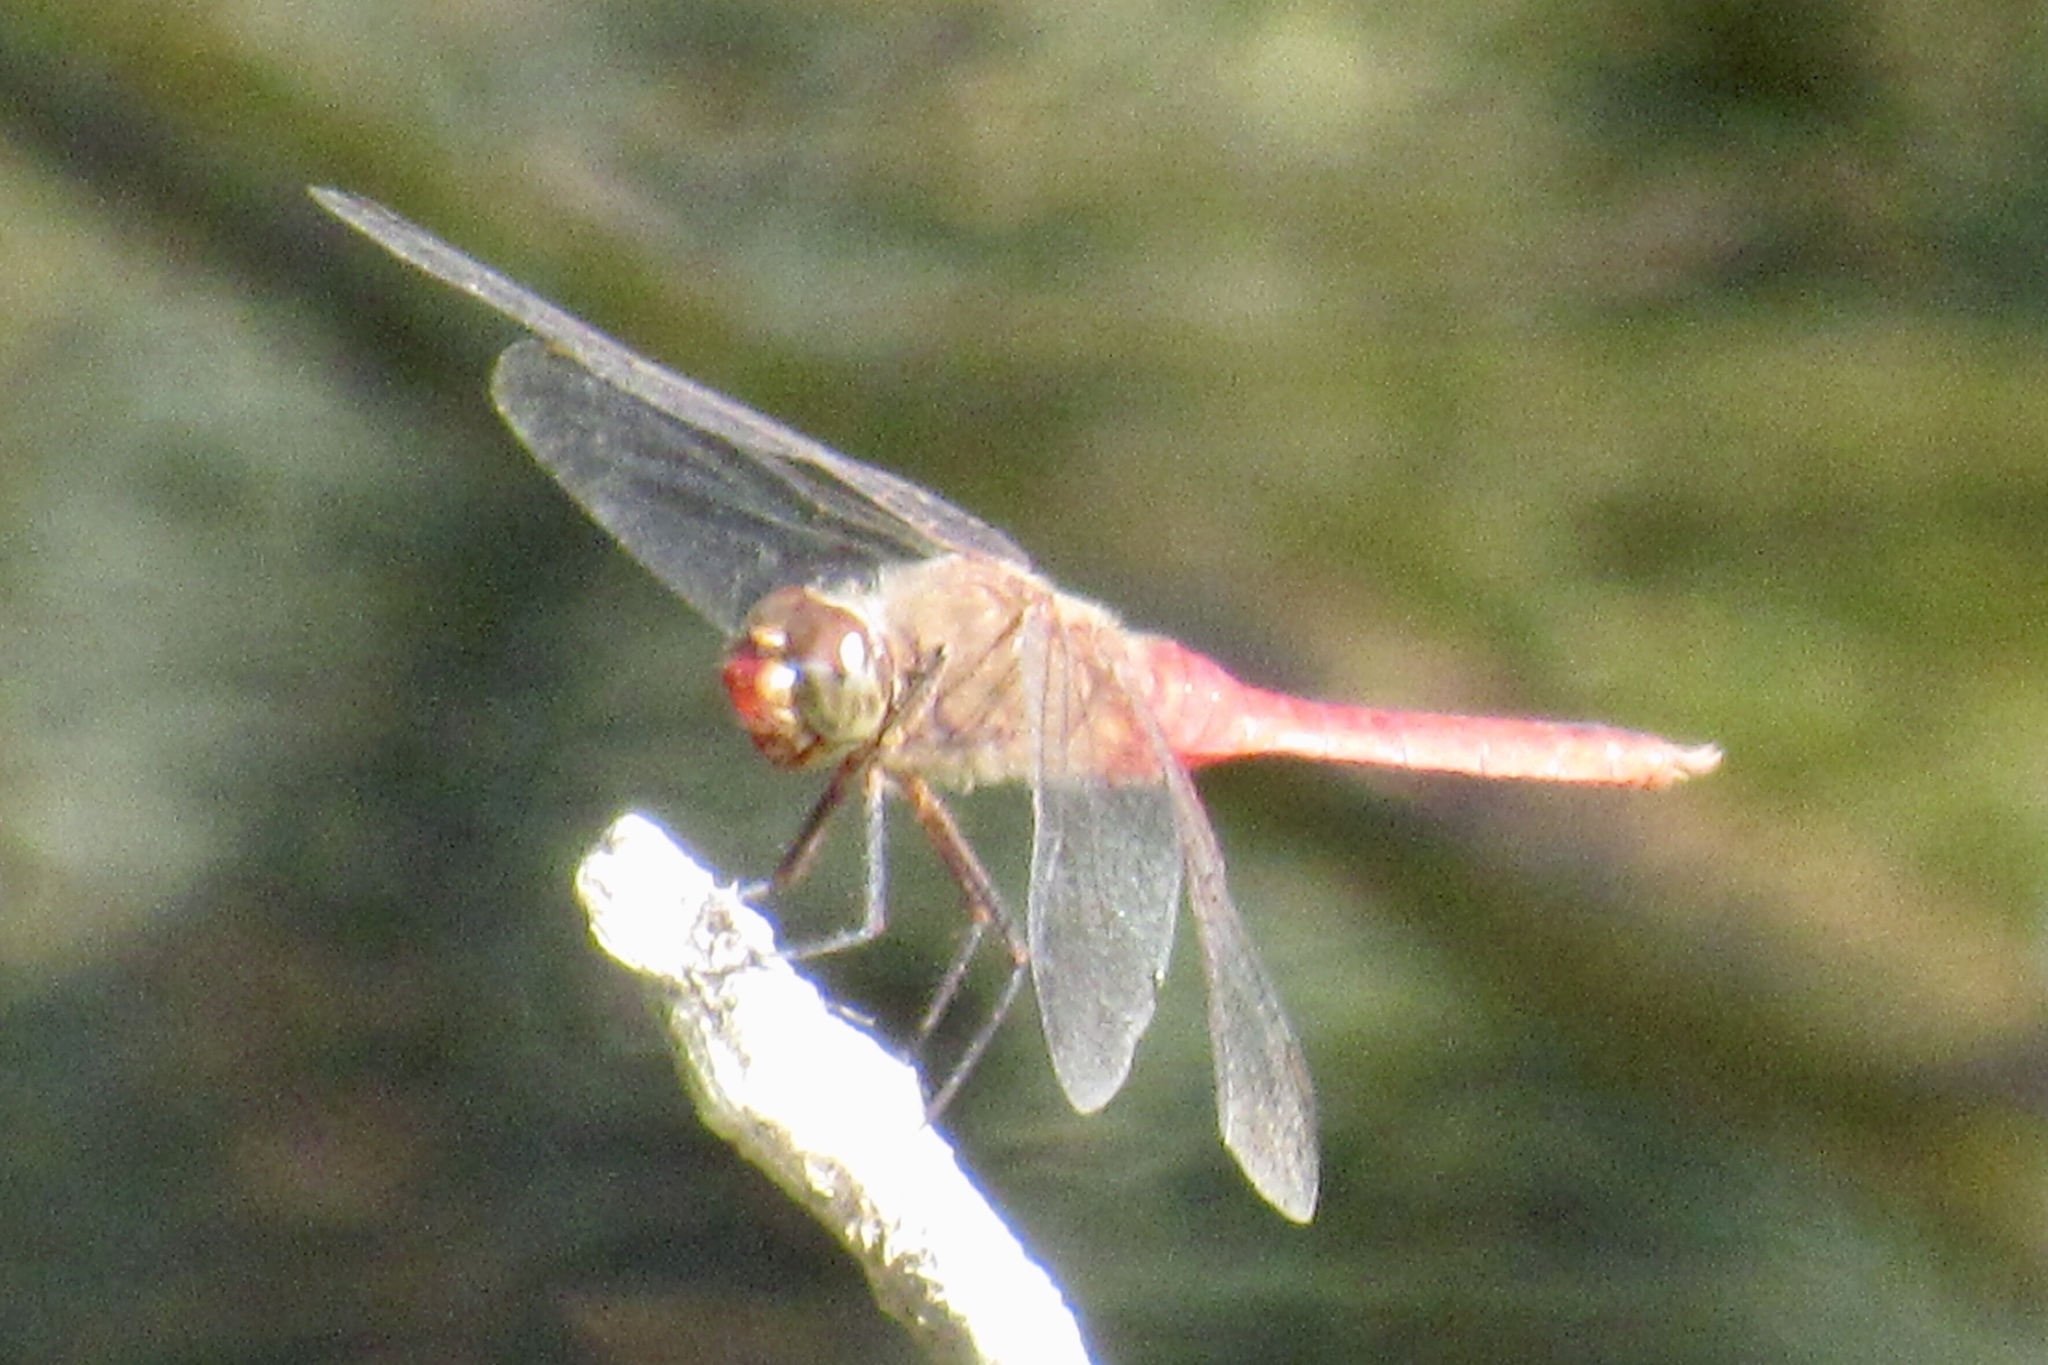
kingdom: Animalia
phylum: Arthropoda
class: Insecta
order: Odonata
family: Libellulidae
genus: Brachymesia
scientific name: Brachymesia furcata
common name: Red-taled pennant
